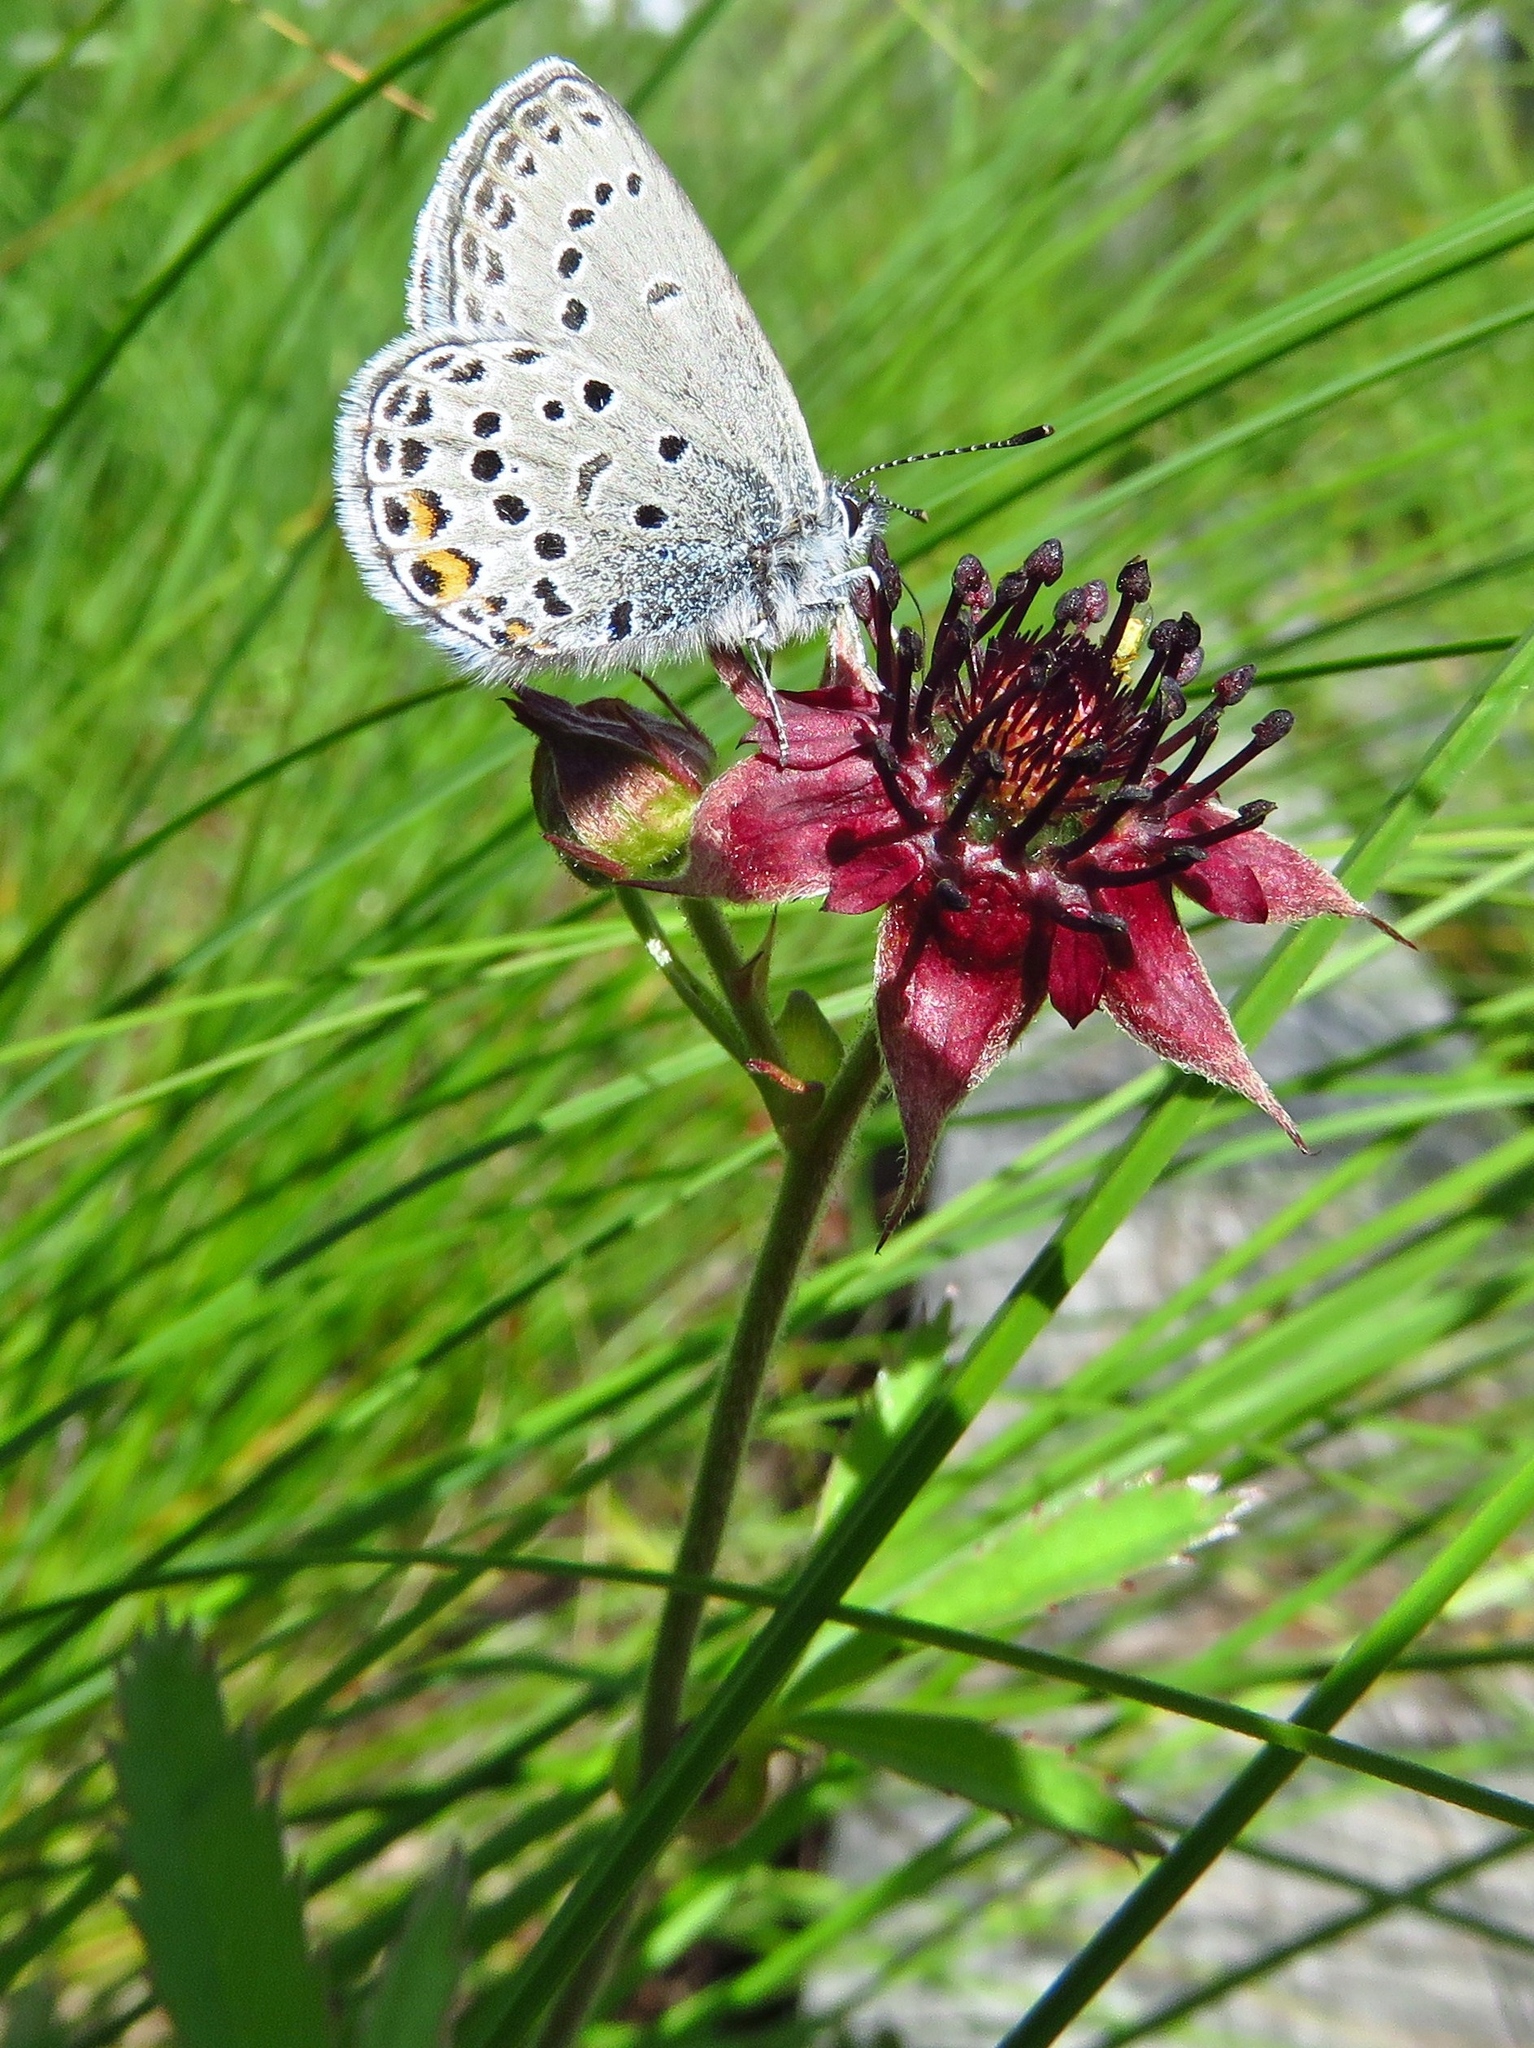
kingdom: Plantae
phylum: Tracheophyta
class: Magnoliopsida
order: Rosales
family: Rosaceae
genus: Comarum
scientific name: Comarum palustre
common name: Marsh cinquefoil
